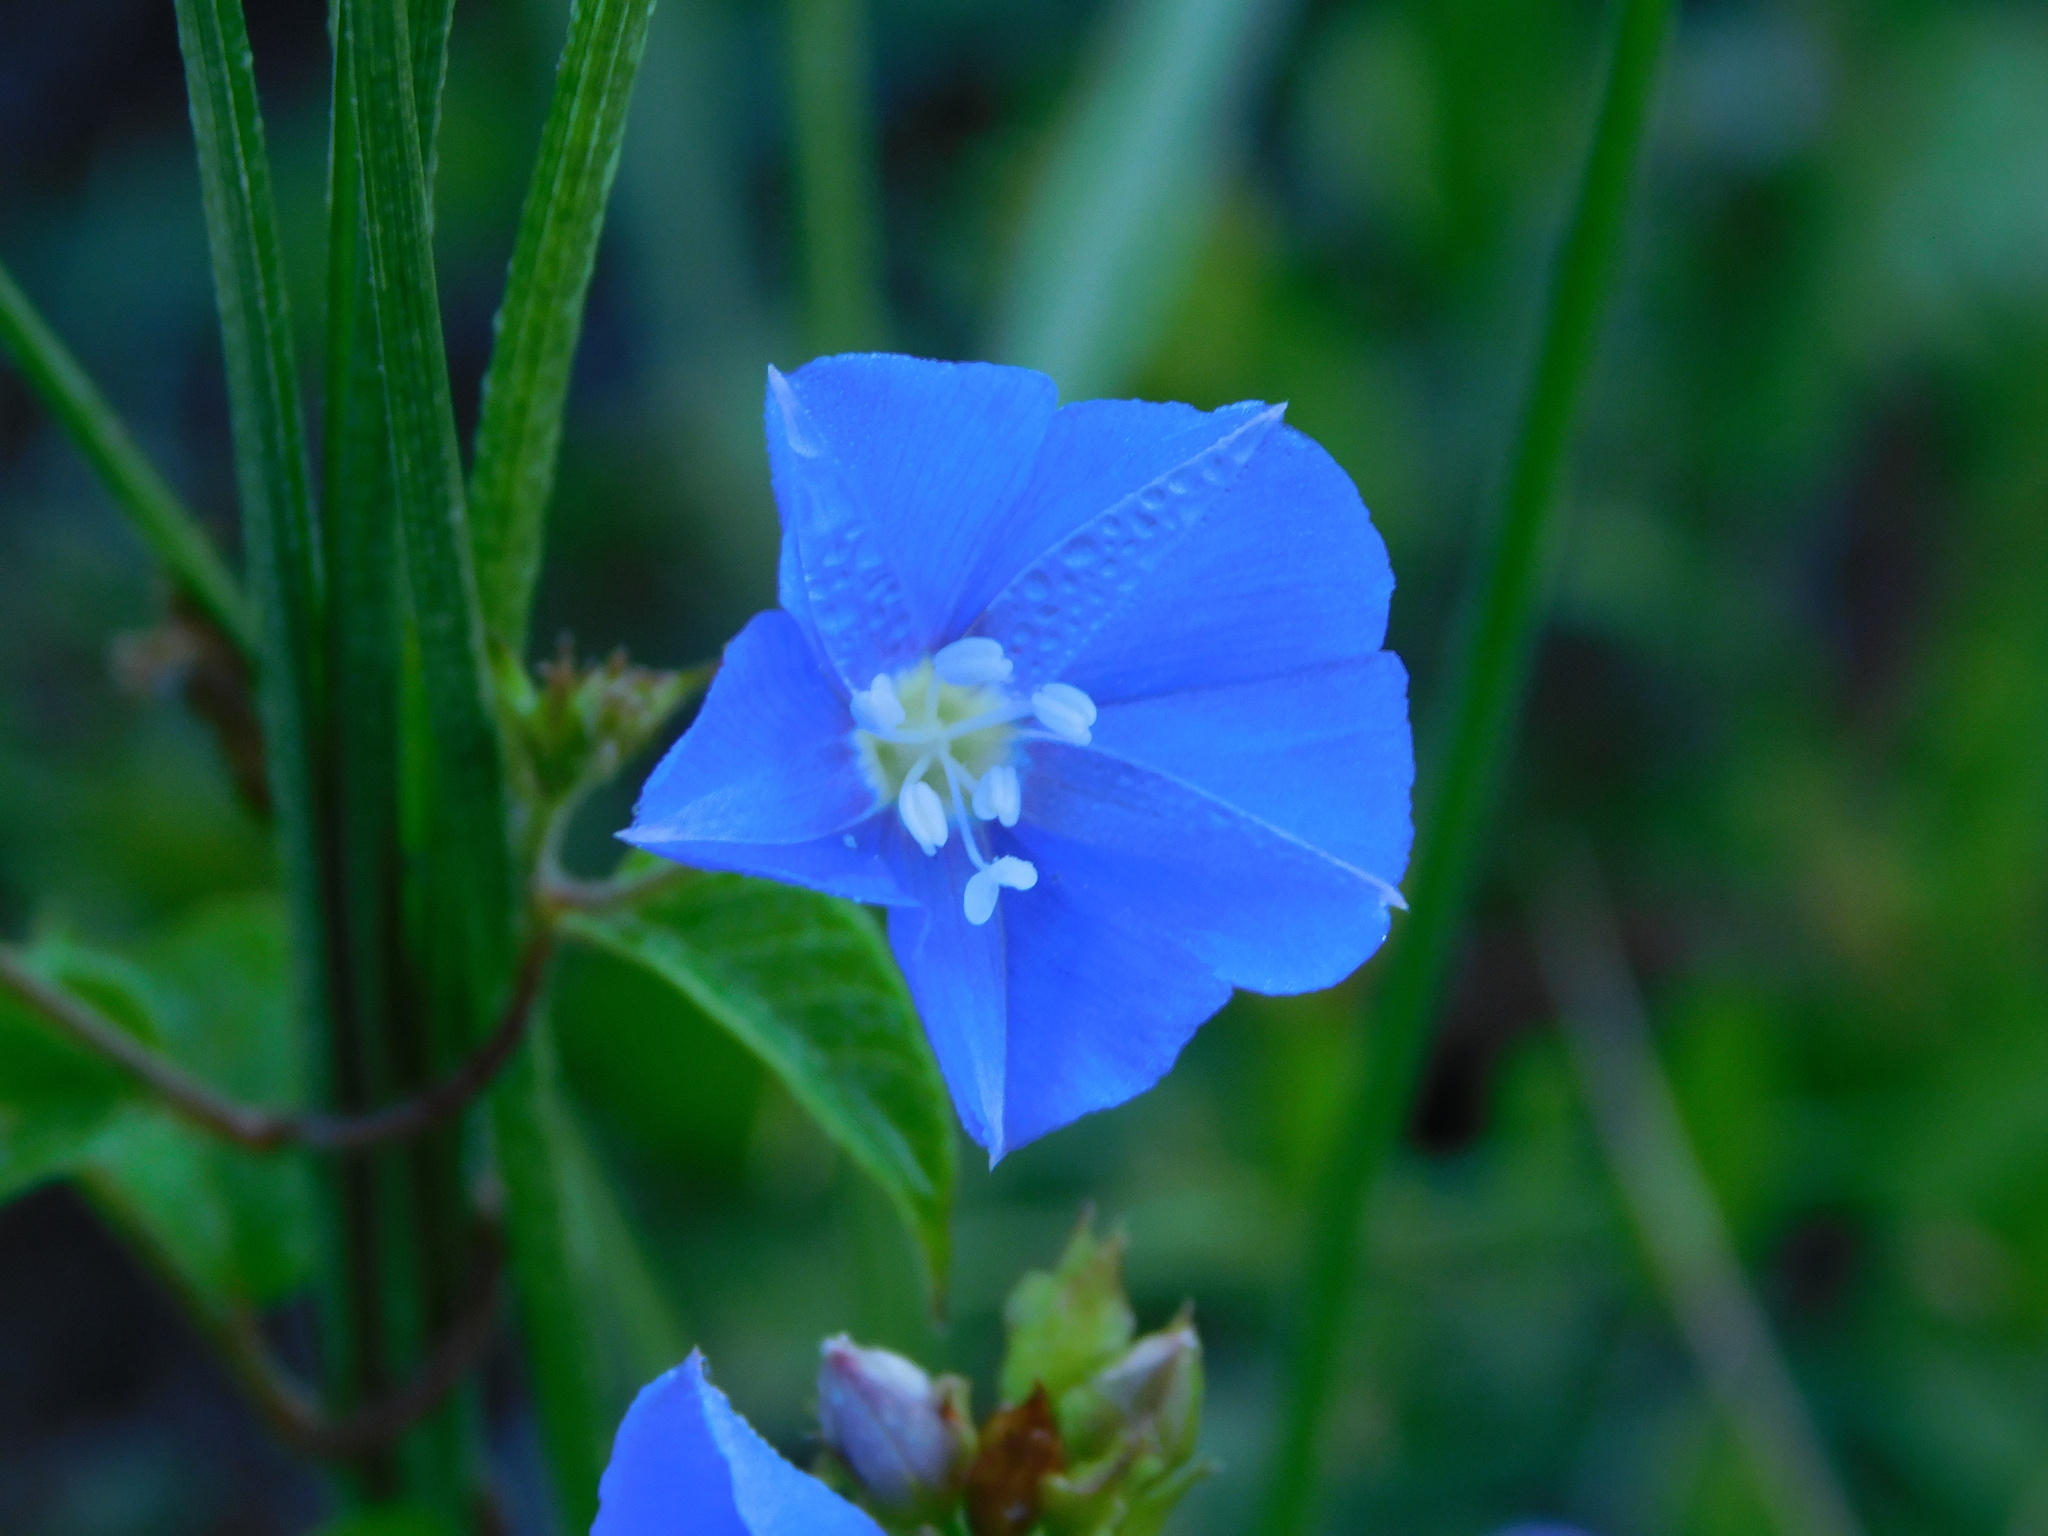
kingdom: Plantae
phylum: Tracheophyta
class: Magnoliopsida
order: Solanales
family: Convolvulaceae
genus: Jacquemontia
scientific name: Jacquemontia pentanthos
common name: Skyblue clustervine
